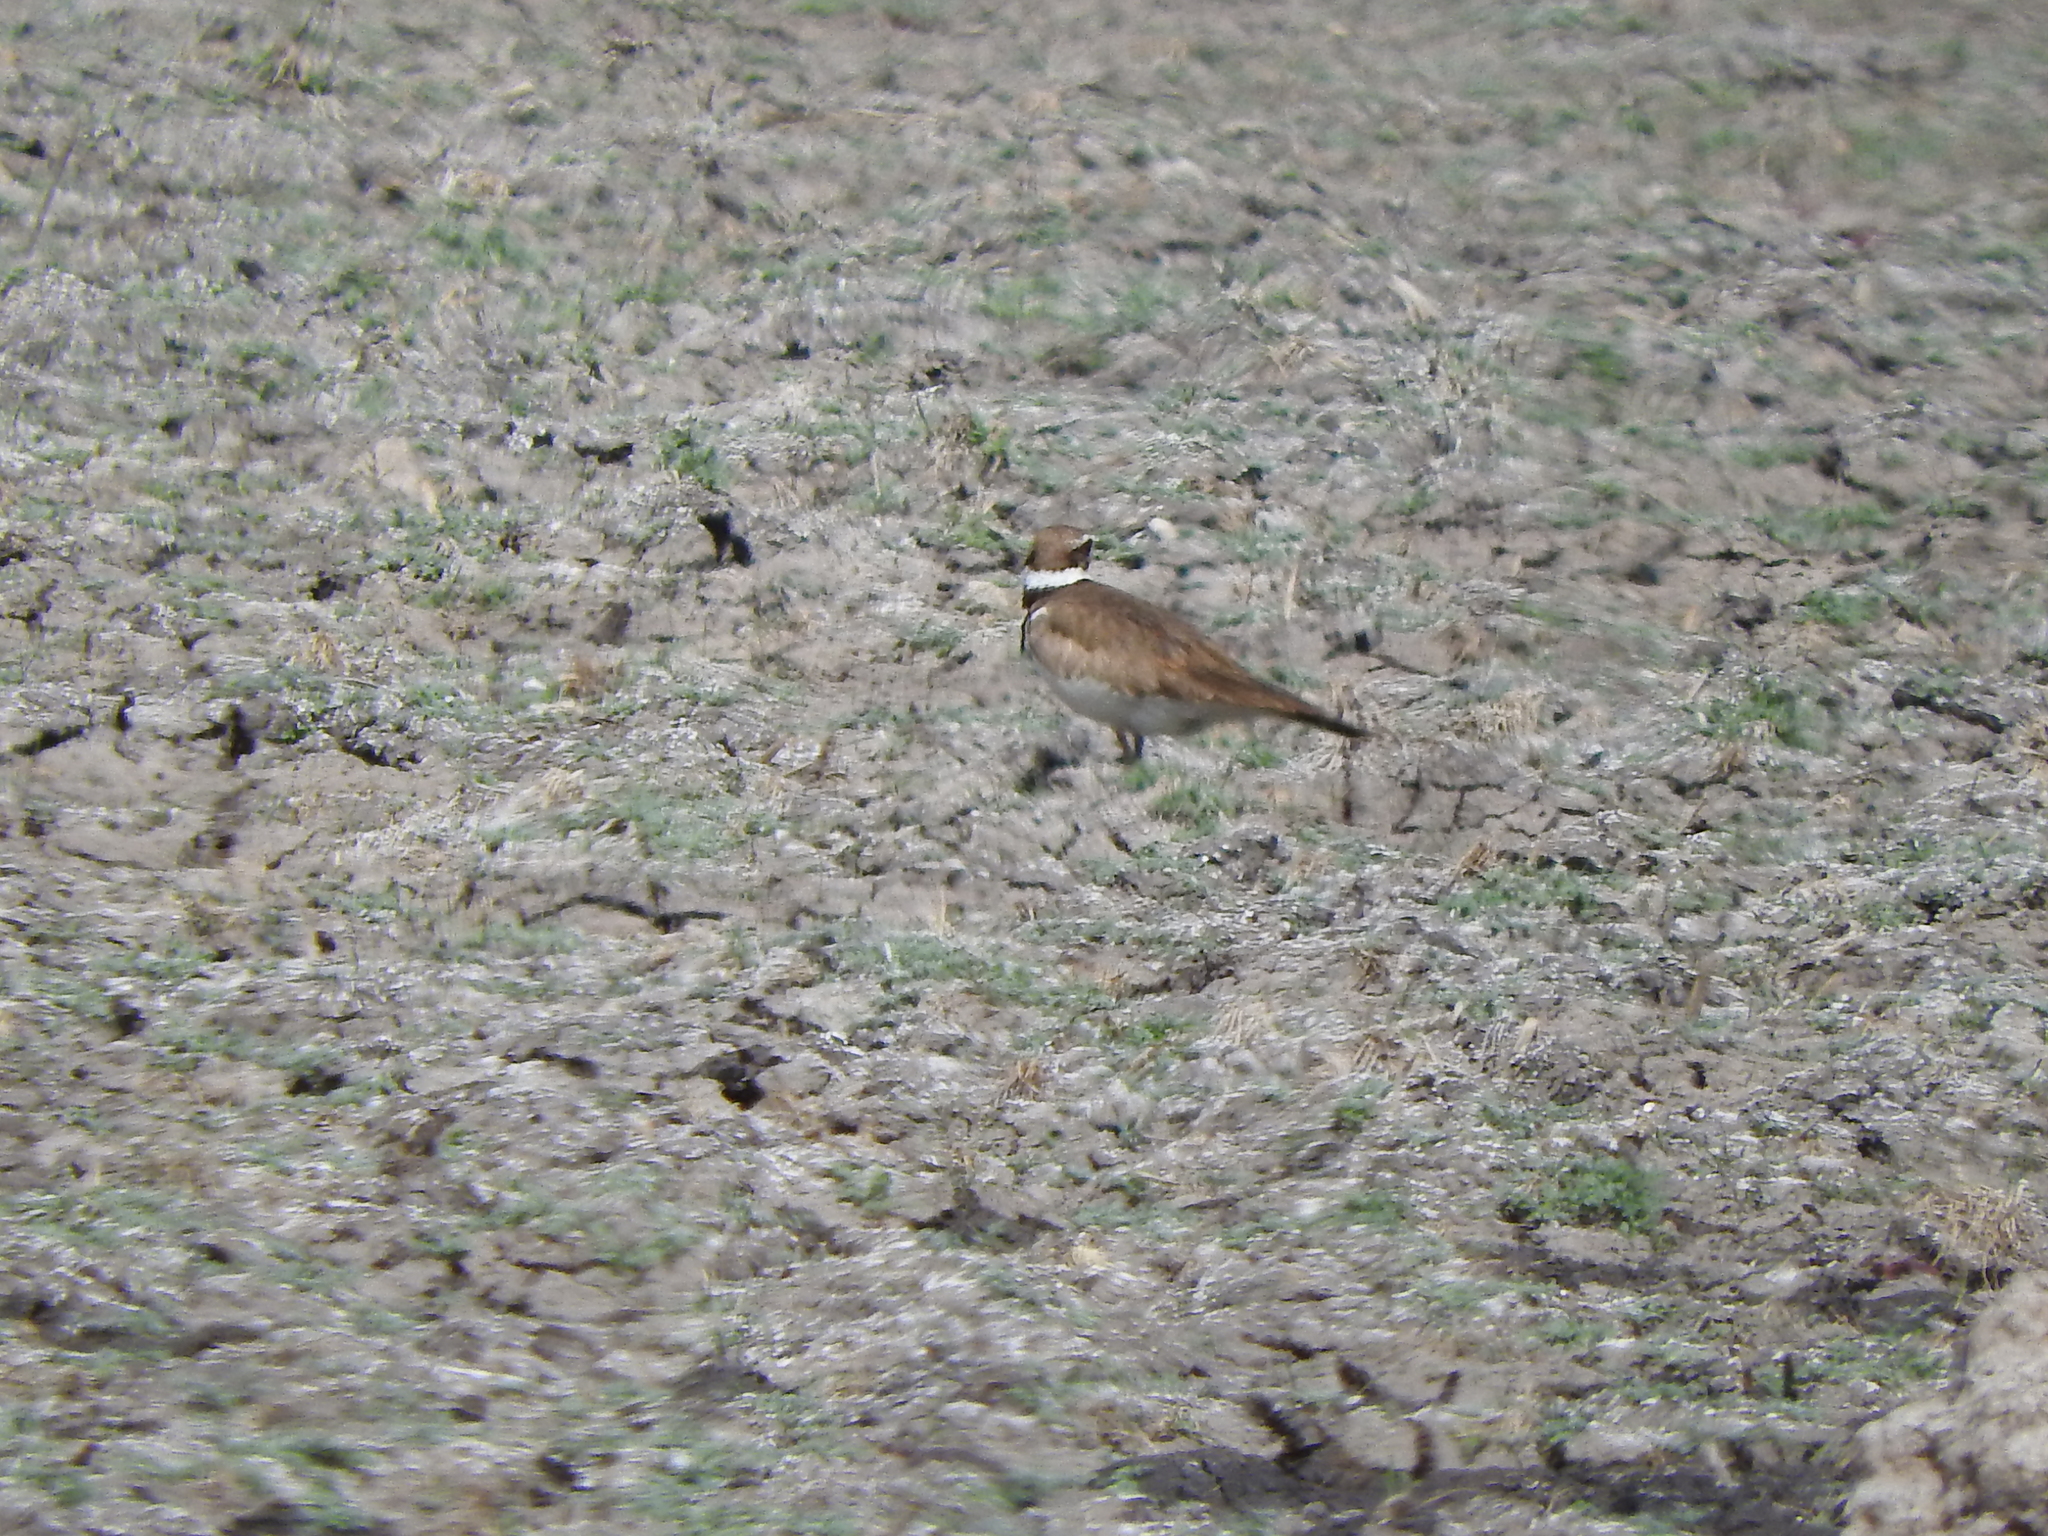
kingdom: Animalia
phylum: Chordata
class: Aves
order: Charadriiformes
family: Charadriidae
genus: Charadrius
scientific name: Charadrius vociferus
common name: Killdeer
